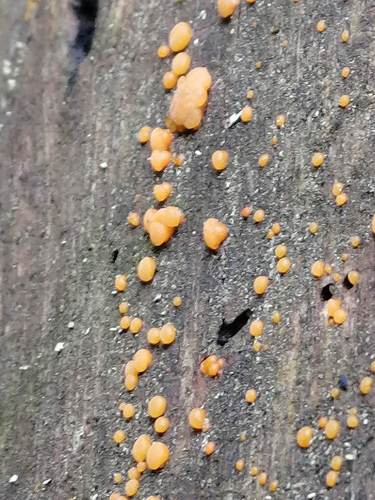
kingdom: Fungi
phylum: Basidiomycota
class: Dacrymycetes
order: Dacrymycetales
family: Dacrymycetaceae
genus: Dacrymyces
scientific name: Dacrymyces chrysospermus
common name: Orange jelly spot
